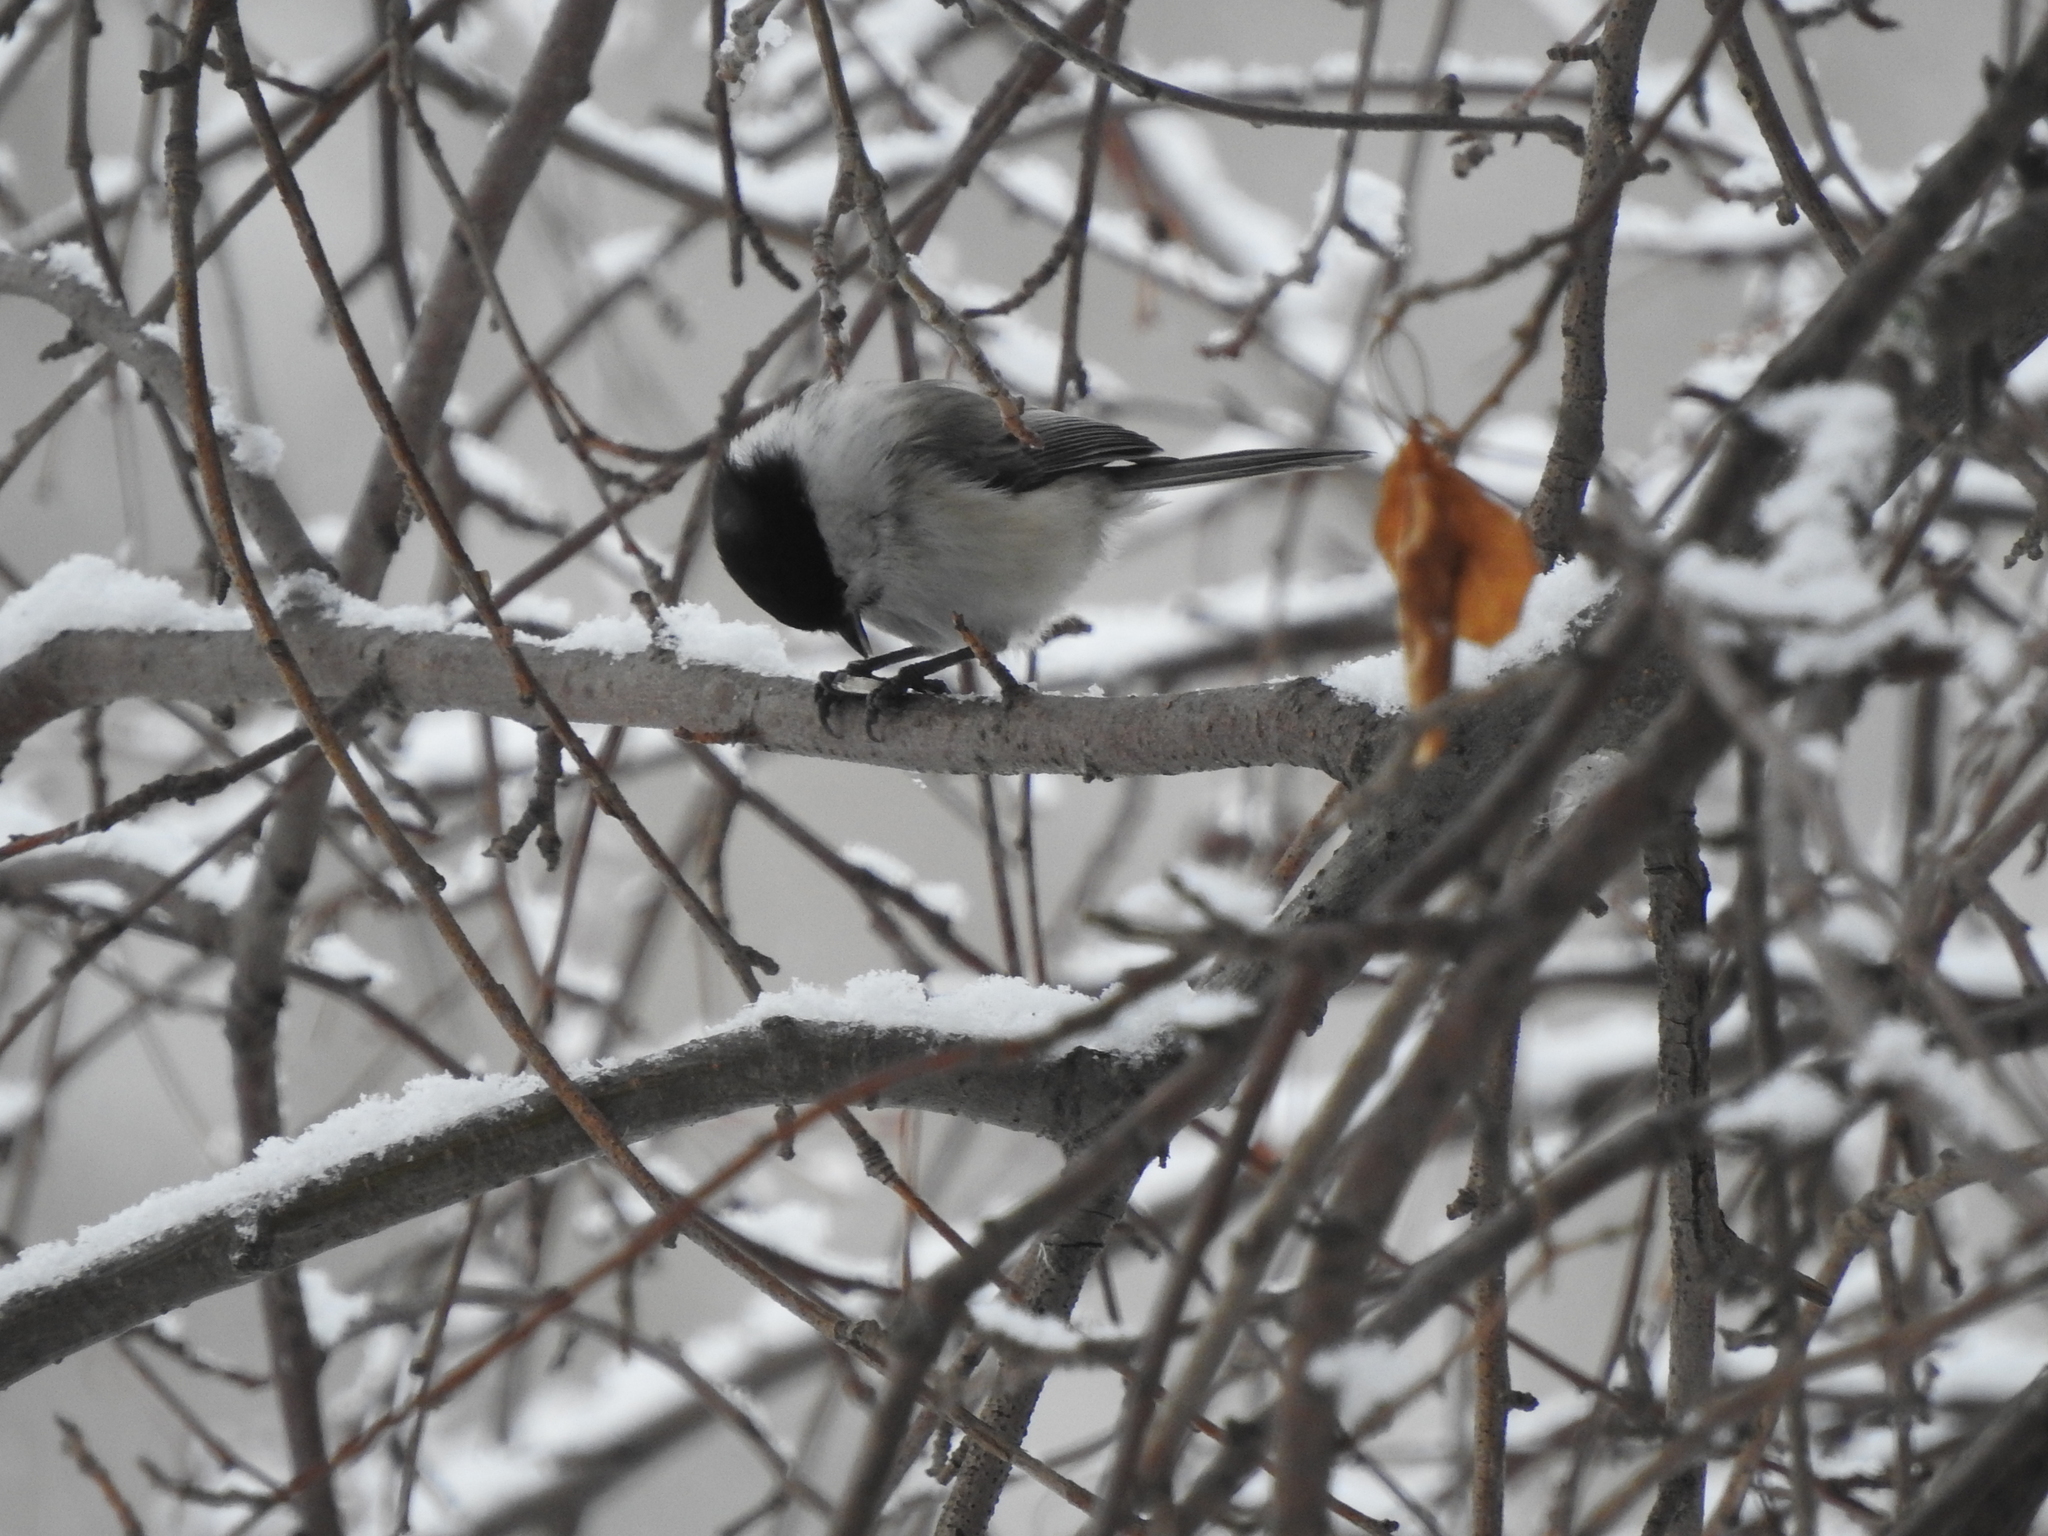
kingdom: Animalia
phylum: Chordata
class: Aves
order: Passeriformes
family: Paridae
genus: Poecile
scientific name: Poecile montanus
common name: Willow tit
